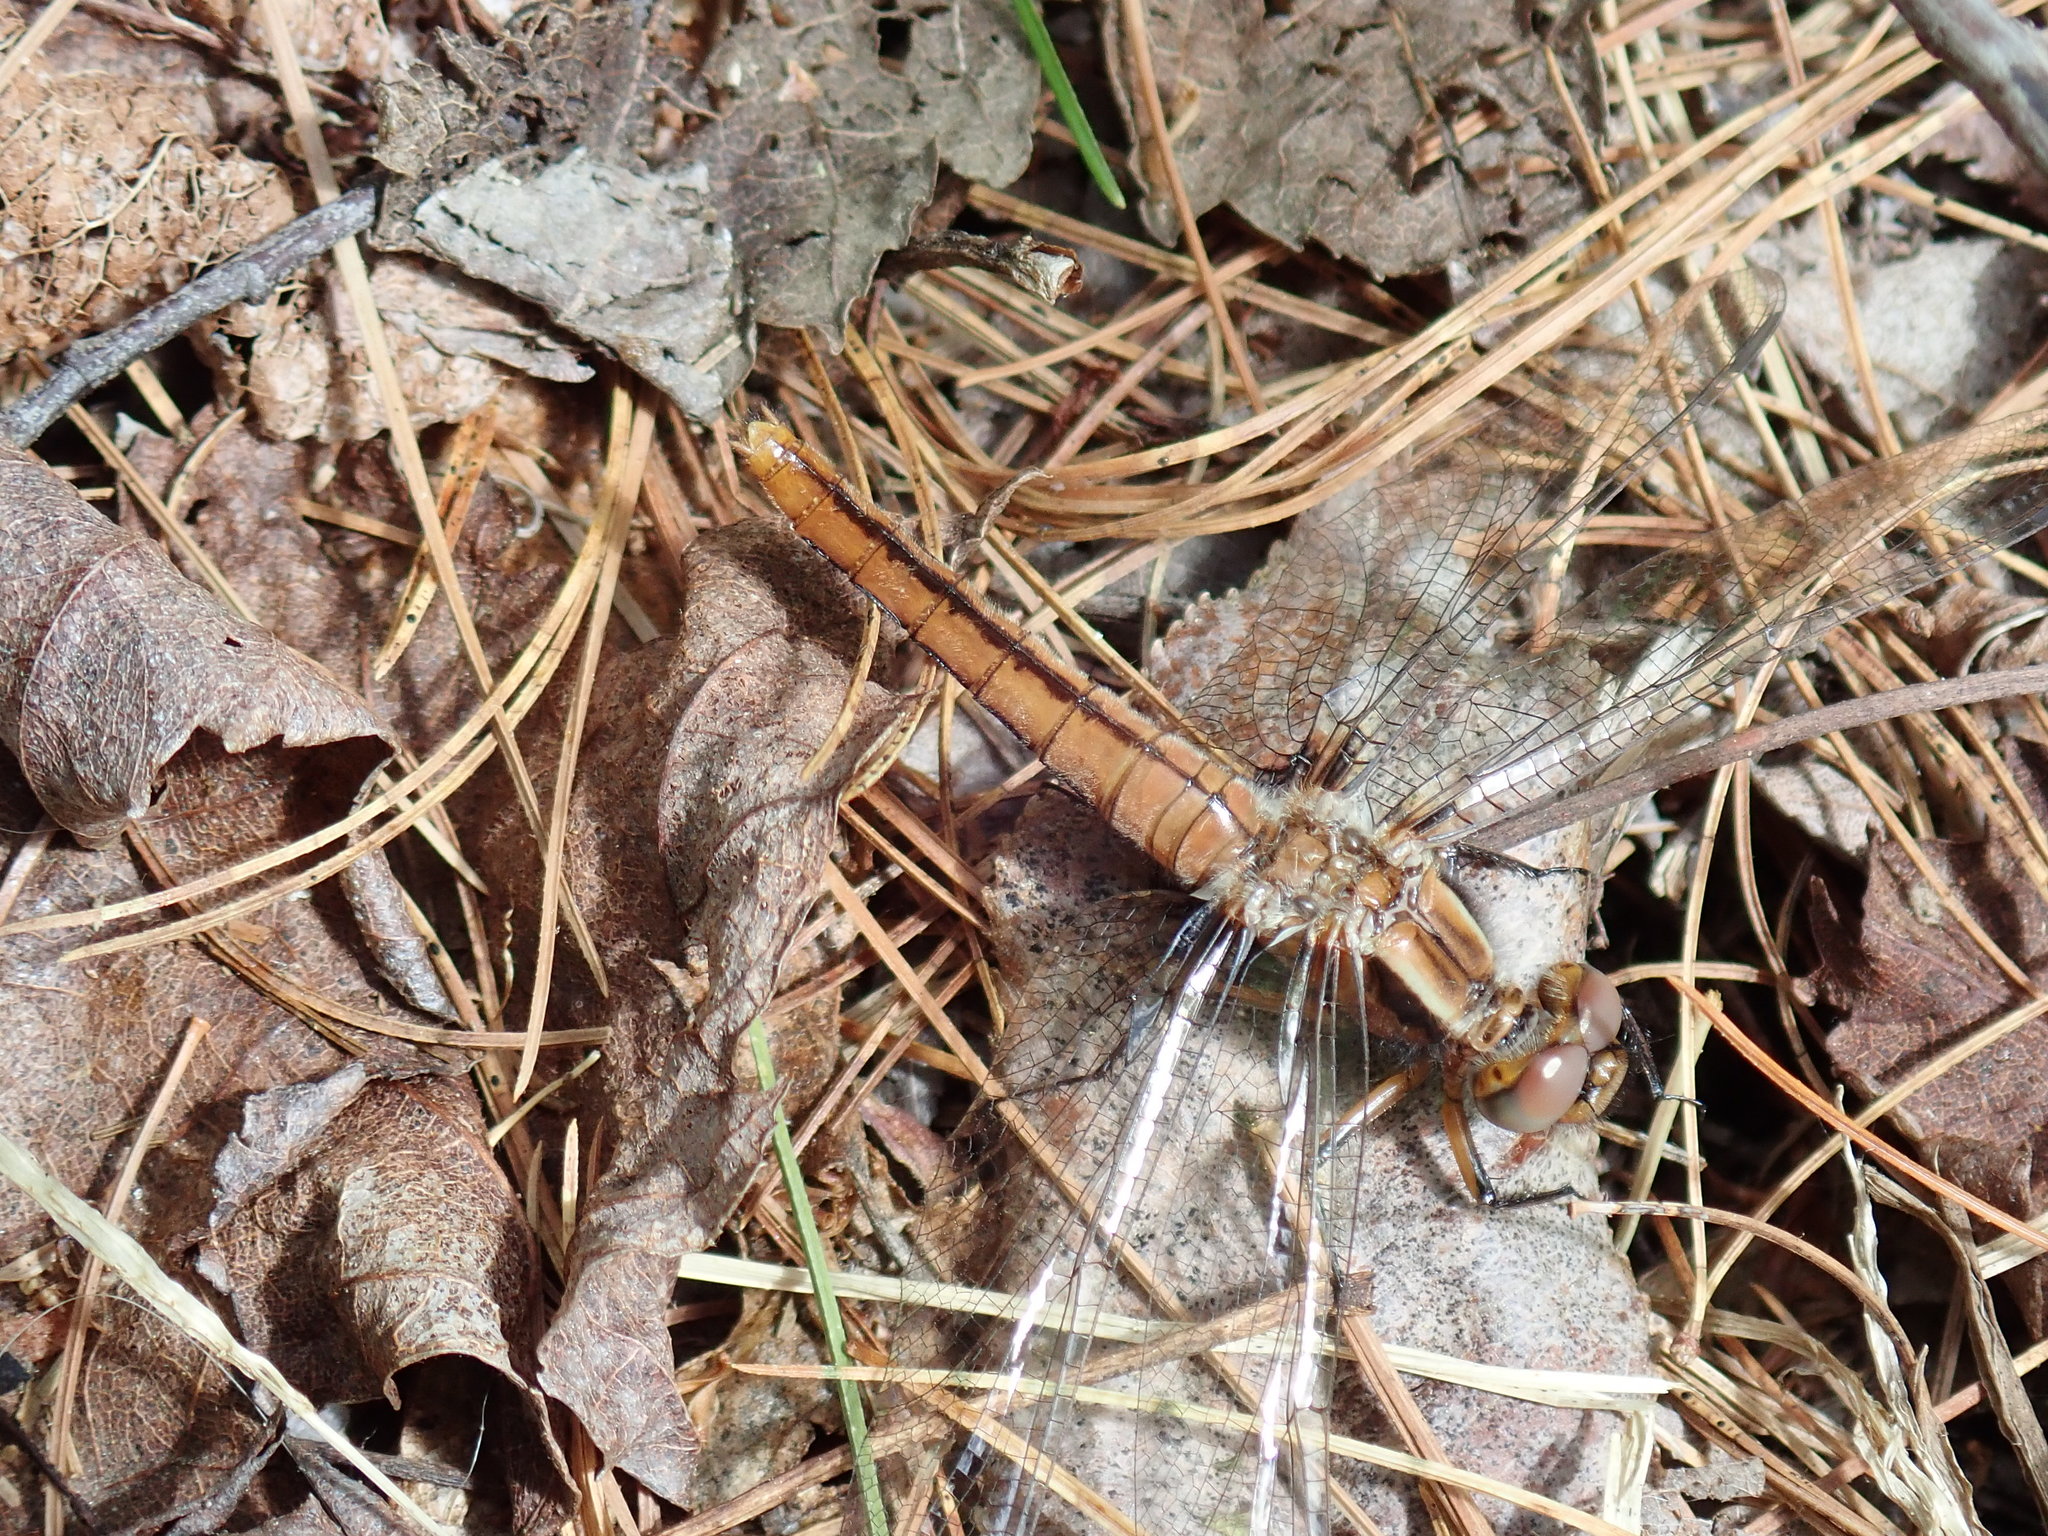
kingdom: Animalia
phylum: Arthropoda
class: Insecta
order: Odonata
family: Libellulidae
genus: Ladona
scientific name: Ladona julia
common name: Chalk-fronted corporal
